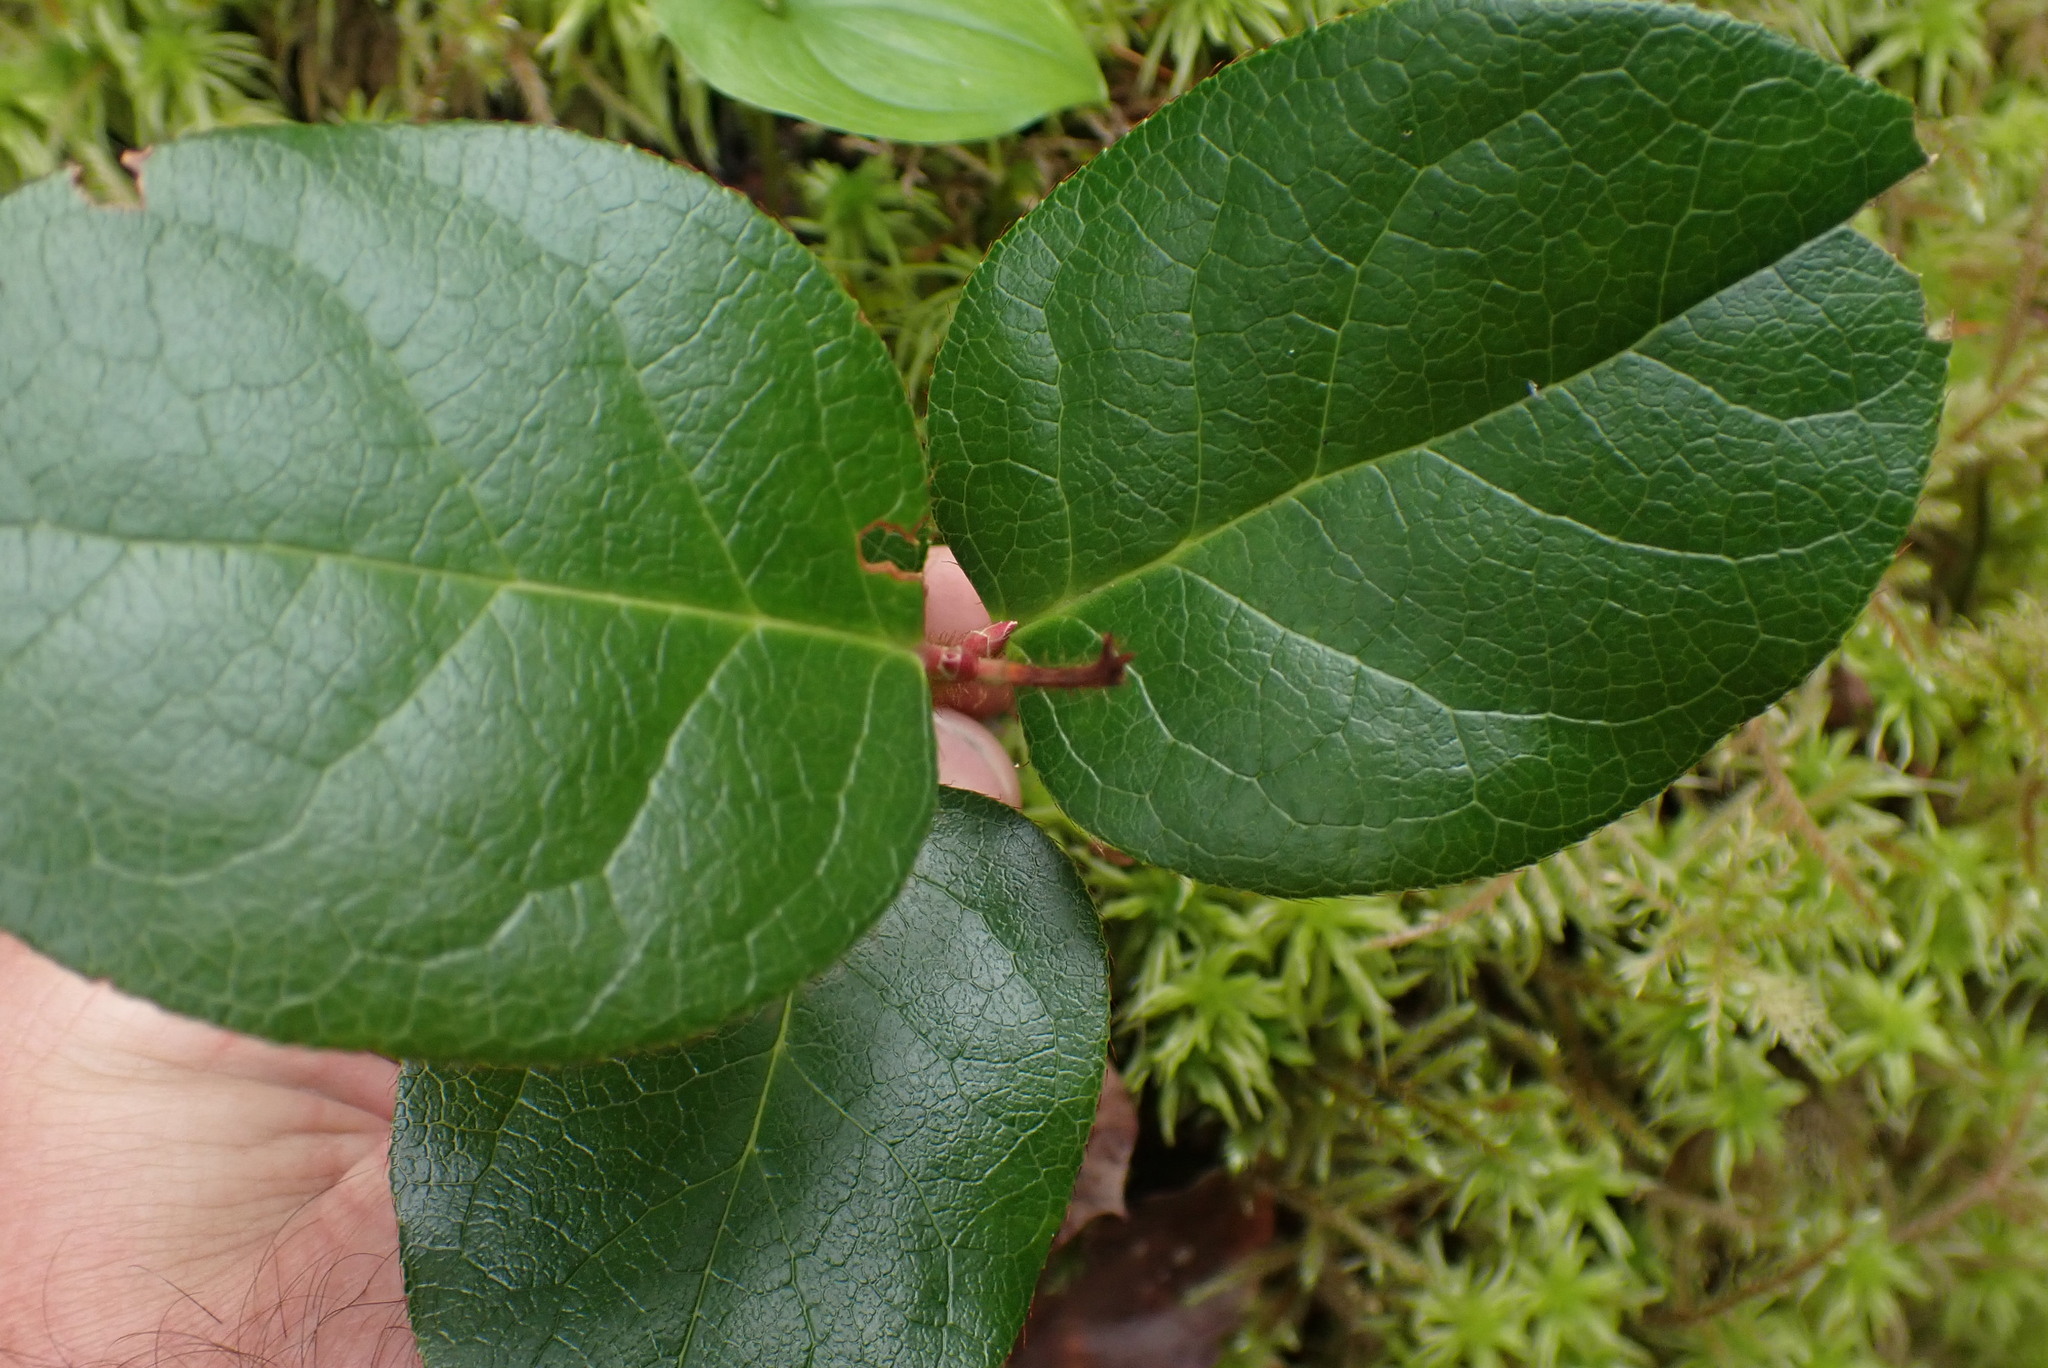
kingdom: Plantae
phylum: Tracheophyta
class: Magnoliopsida
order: Ericales
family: Ericaceae
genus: Gaultheria
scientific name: Gaultheria shallon
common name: Shallon
